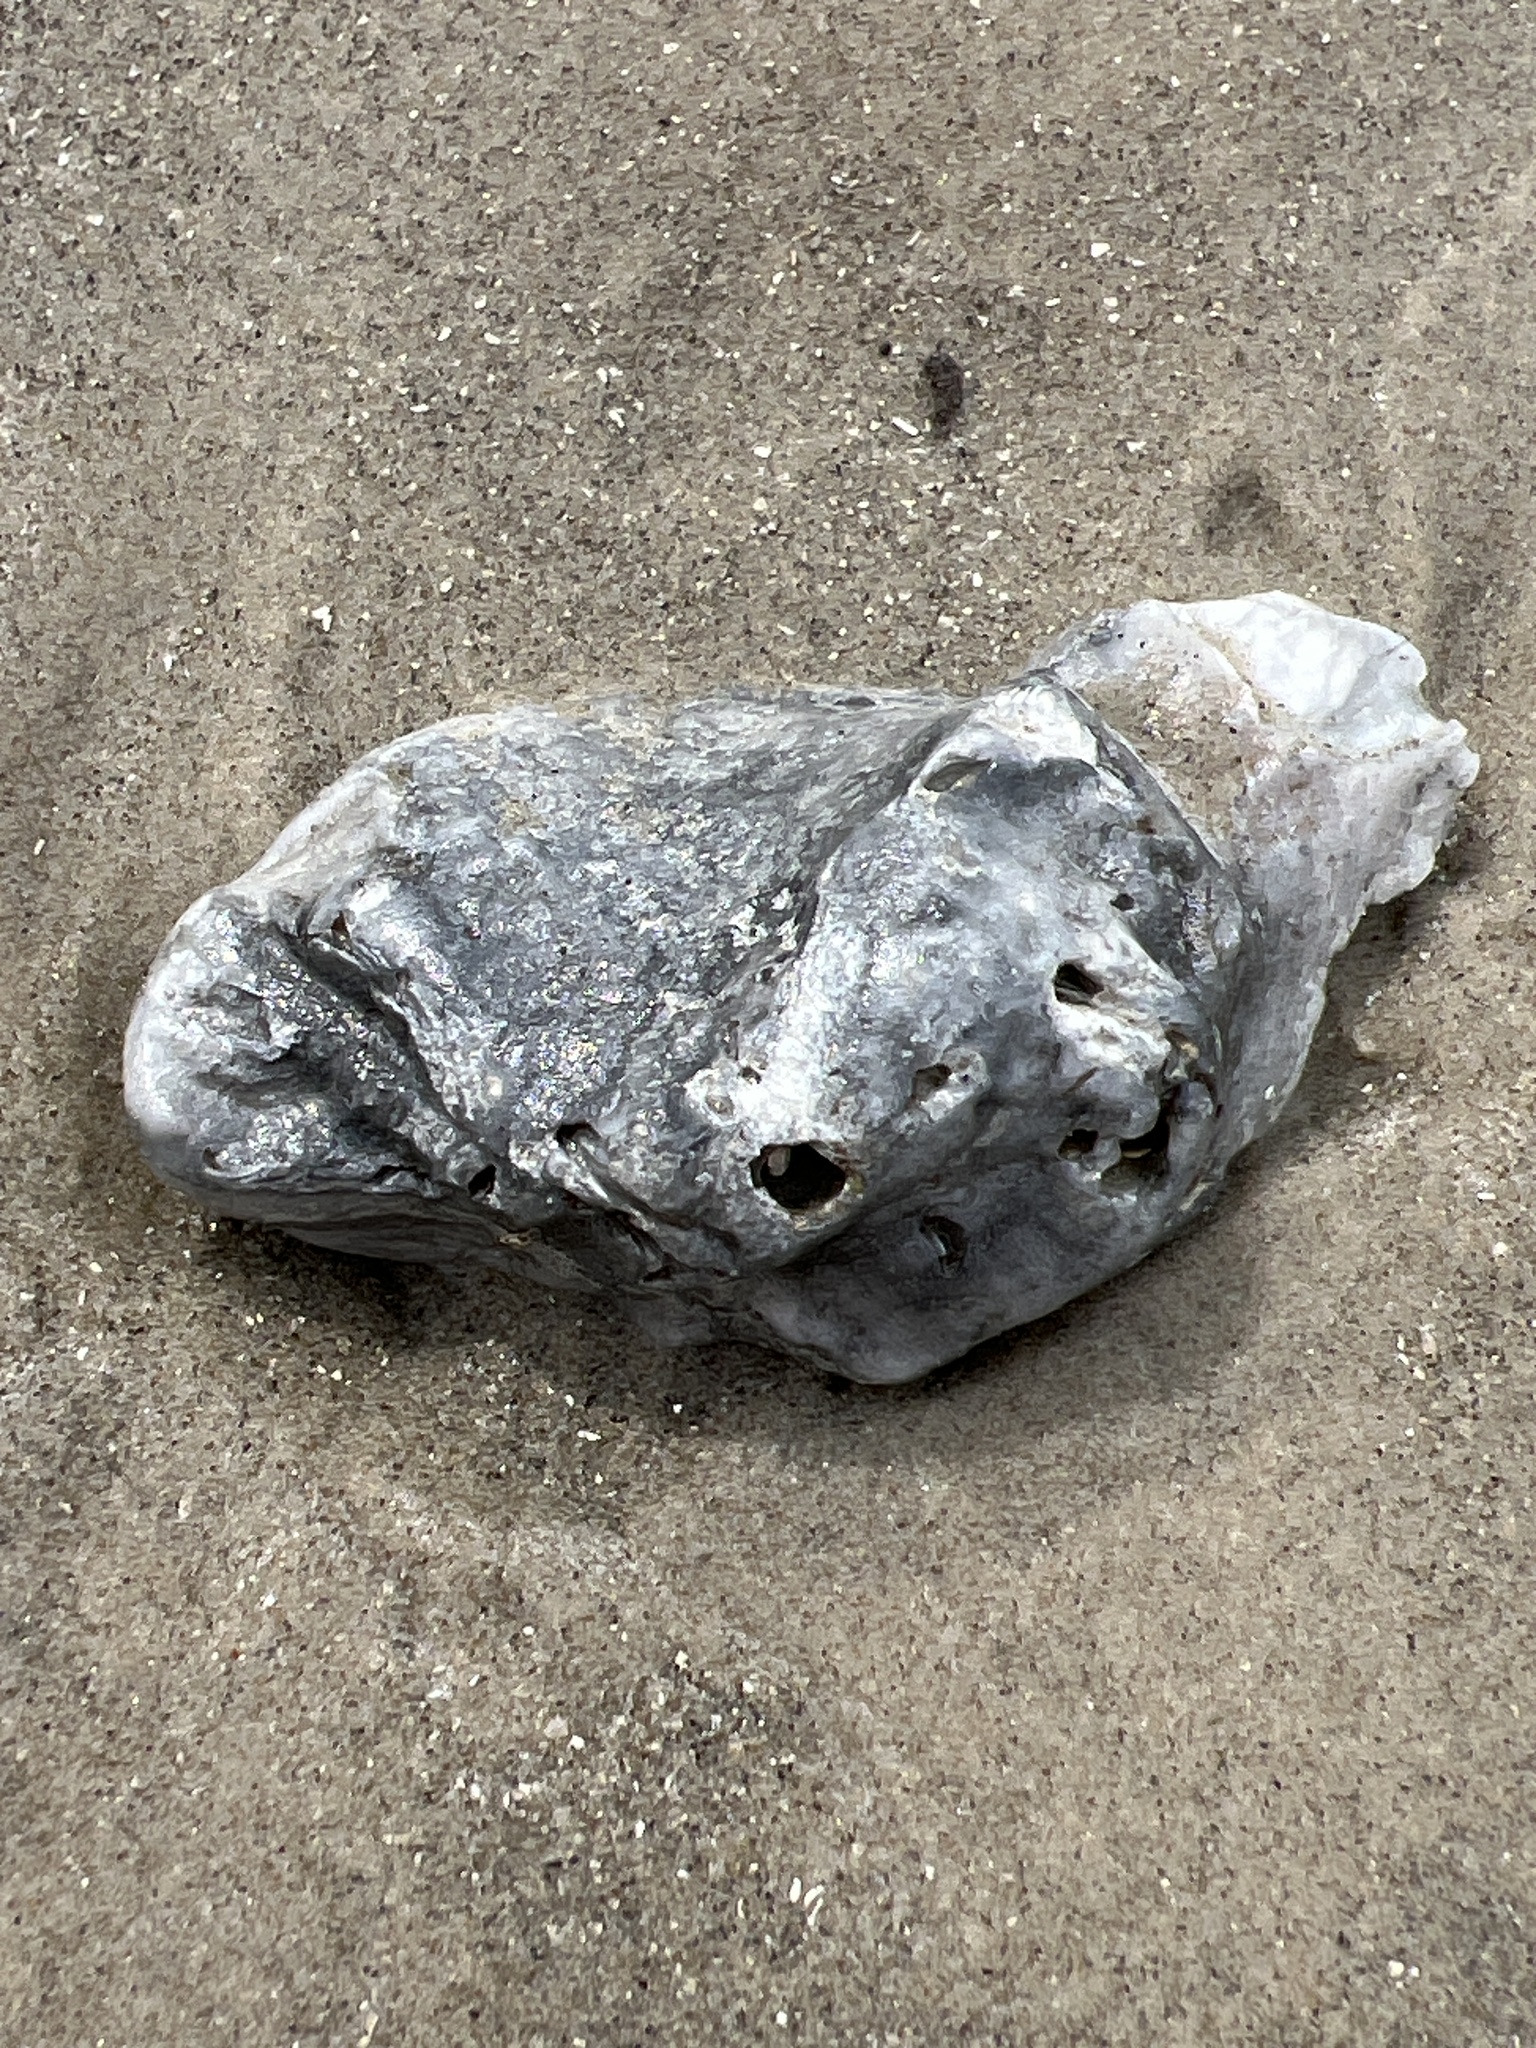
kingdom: Animalia
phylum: Mollusca
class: Bivalvia
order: Ostreida
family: Ostreidae
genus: Crassostrea
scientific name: Crassostrea virginica
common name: American oyster
